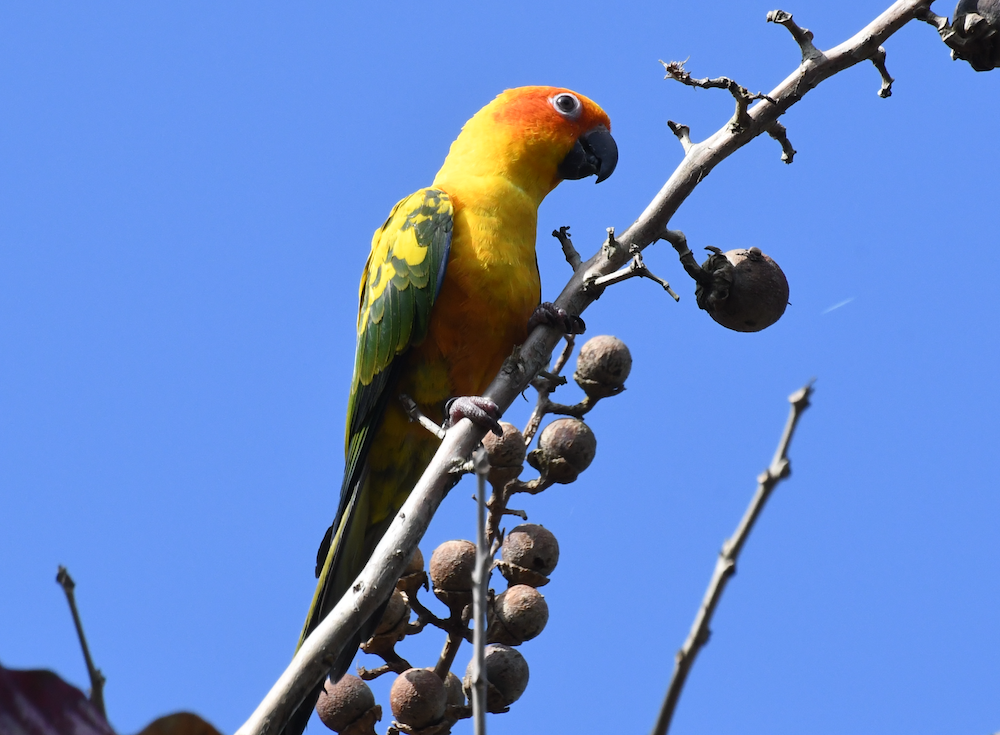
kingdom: Animalia
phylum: Chordata
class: Aves
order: Psittaciformes
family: Psittacidae
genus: Aratinga
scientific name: Aratinga solstitialis
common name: Sun parakeet
